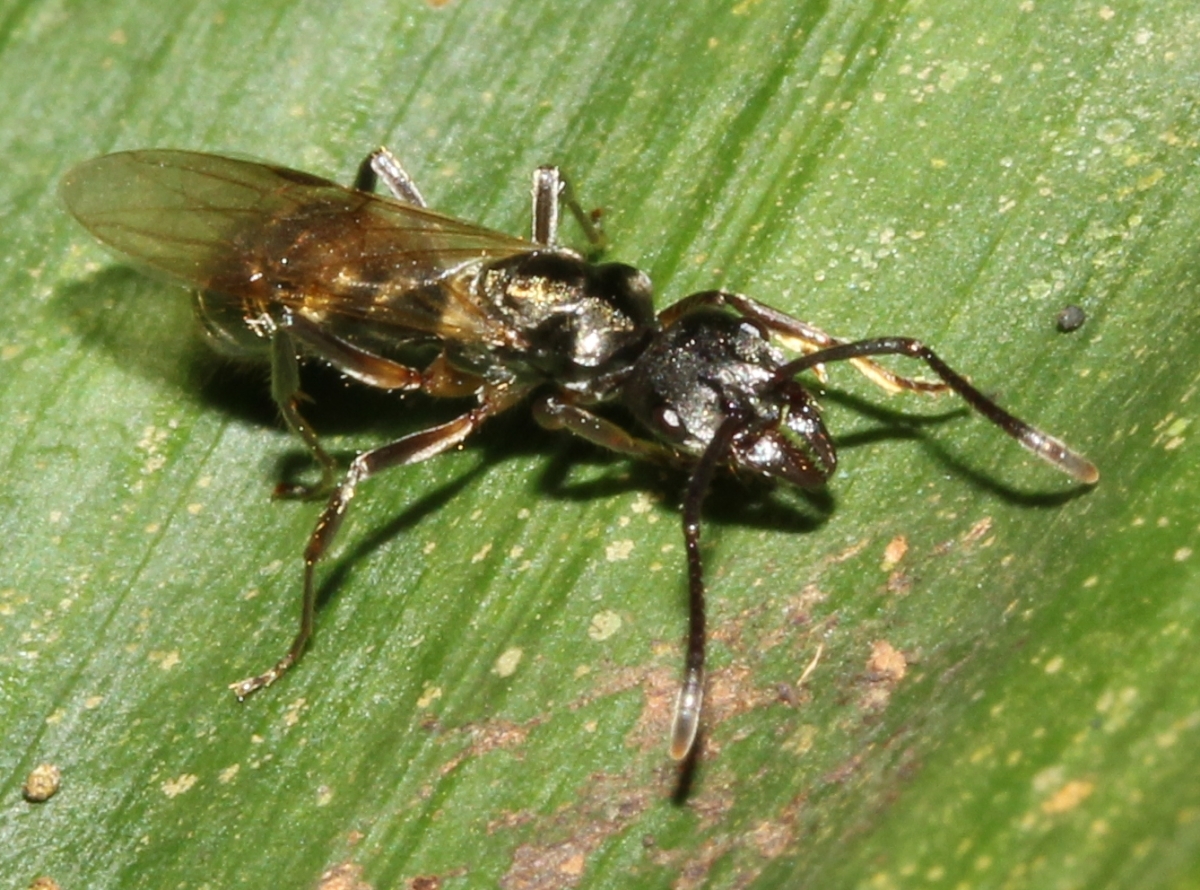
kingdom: Animalia
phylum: Arthropoda
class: Insecta
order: Hymenoptera
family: Formicidae
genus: Neoponera
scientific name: Neoponera
